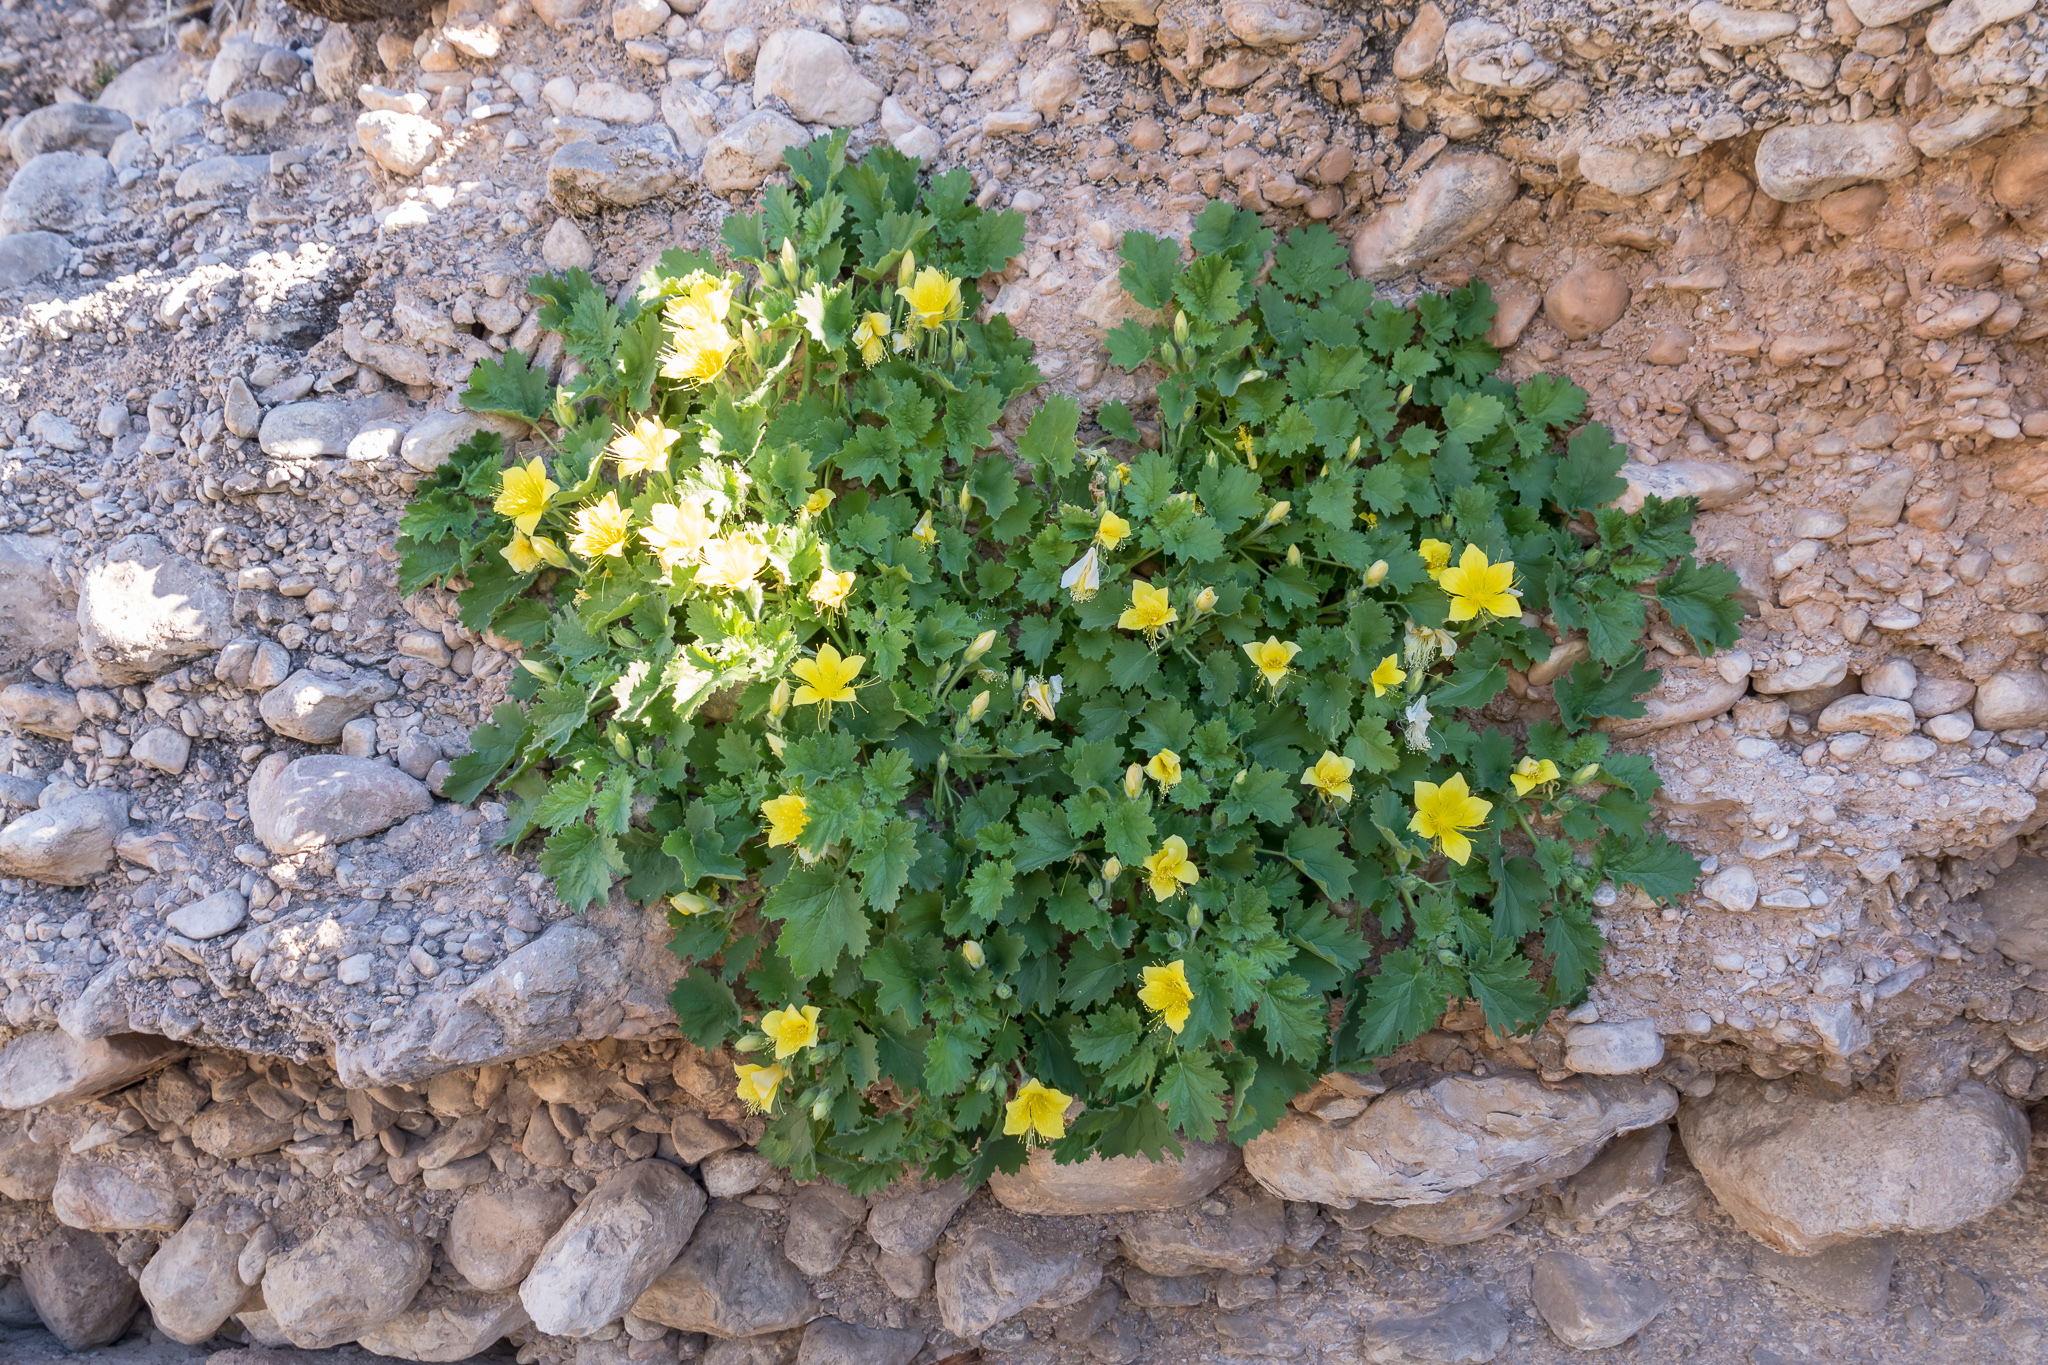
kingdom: Plantae
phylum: Tracheophyta
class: Magnoliopsida
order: Cornales
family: Loasaceae
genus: Eucnide
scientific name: Eucnide bartonioides
